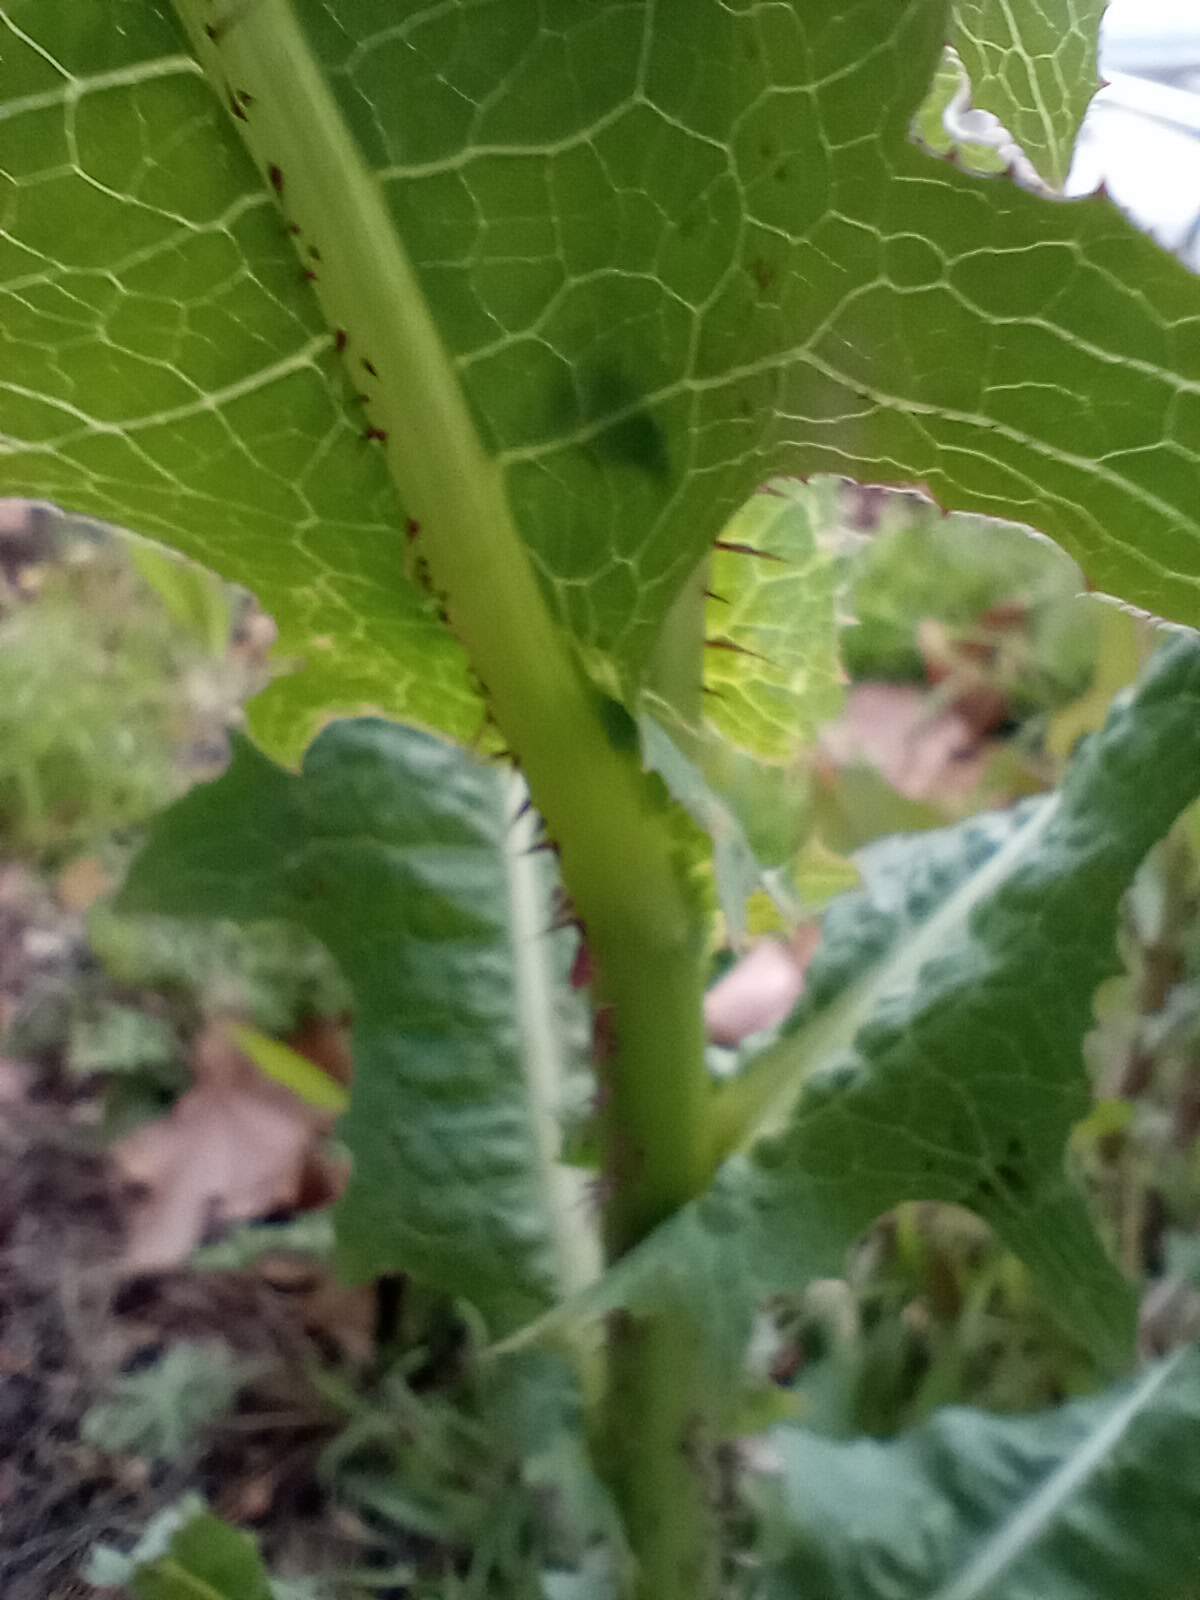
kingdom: Plantae
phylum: Tracheophyta
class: Magnoliopsida
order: Asterales
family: Asteraceae
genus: Lactuca
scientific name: Lactuca serriola
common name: Prickly lettuce
